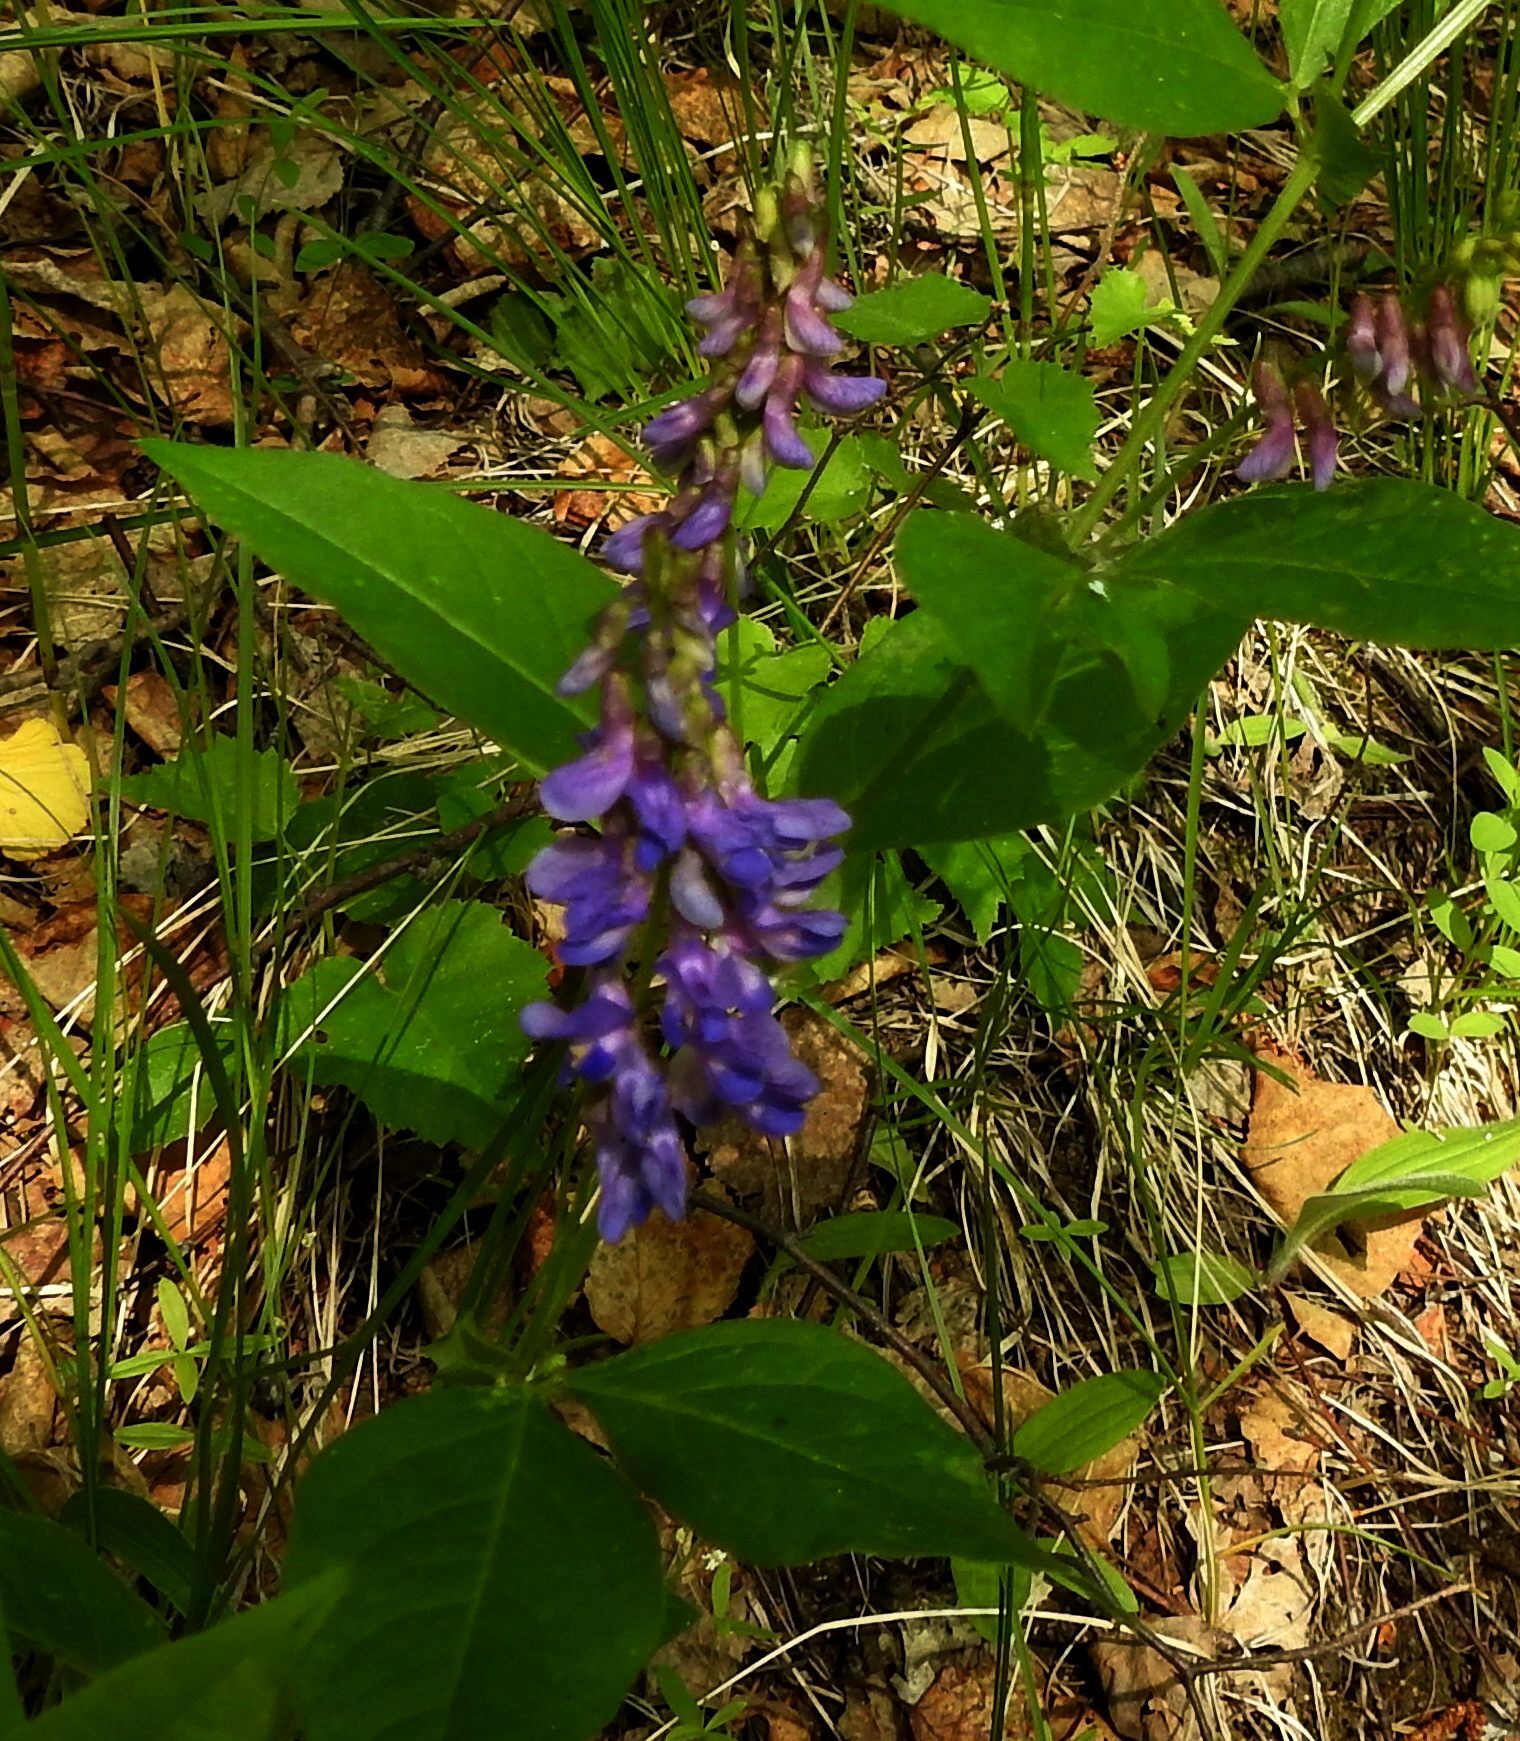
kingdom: Plantae
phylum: Tracheophyta
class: Magnoliopsida
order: Fabales
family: Fabaceae
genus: Vicia
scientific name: Vicia unijuga
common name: Two-leaf vetch
